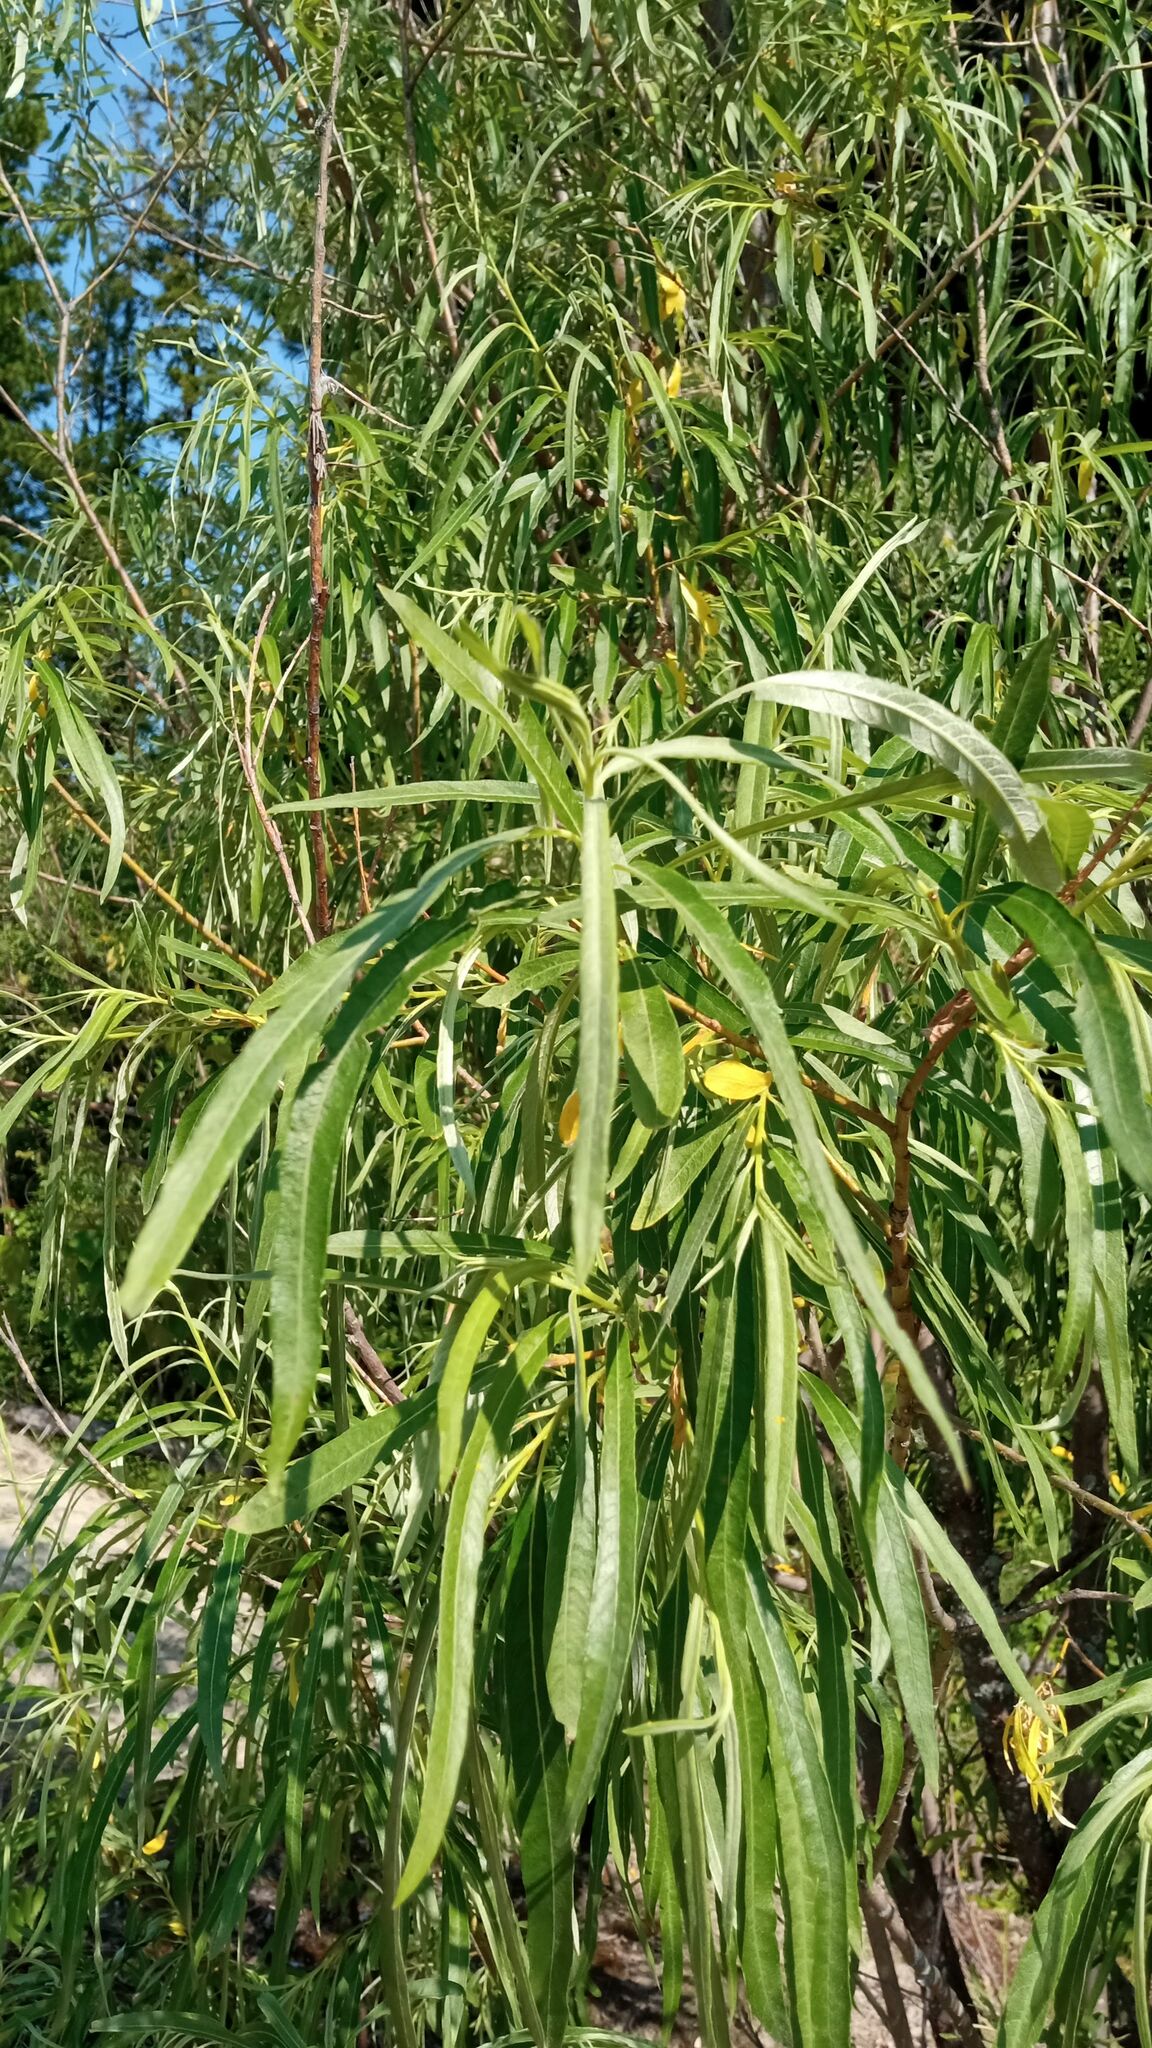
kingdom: Plantae
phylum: Tracheophyta
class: Magnoliopsida
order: Malpighiales
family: Salicaceae
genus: Salix
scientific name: Salix viminalis
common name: Osier
